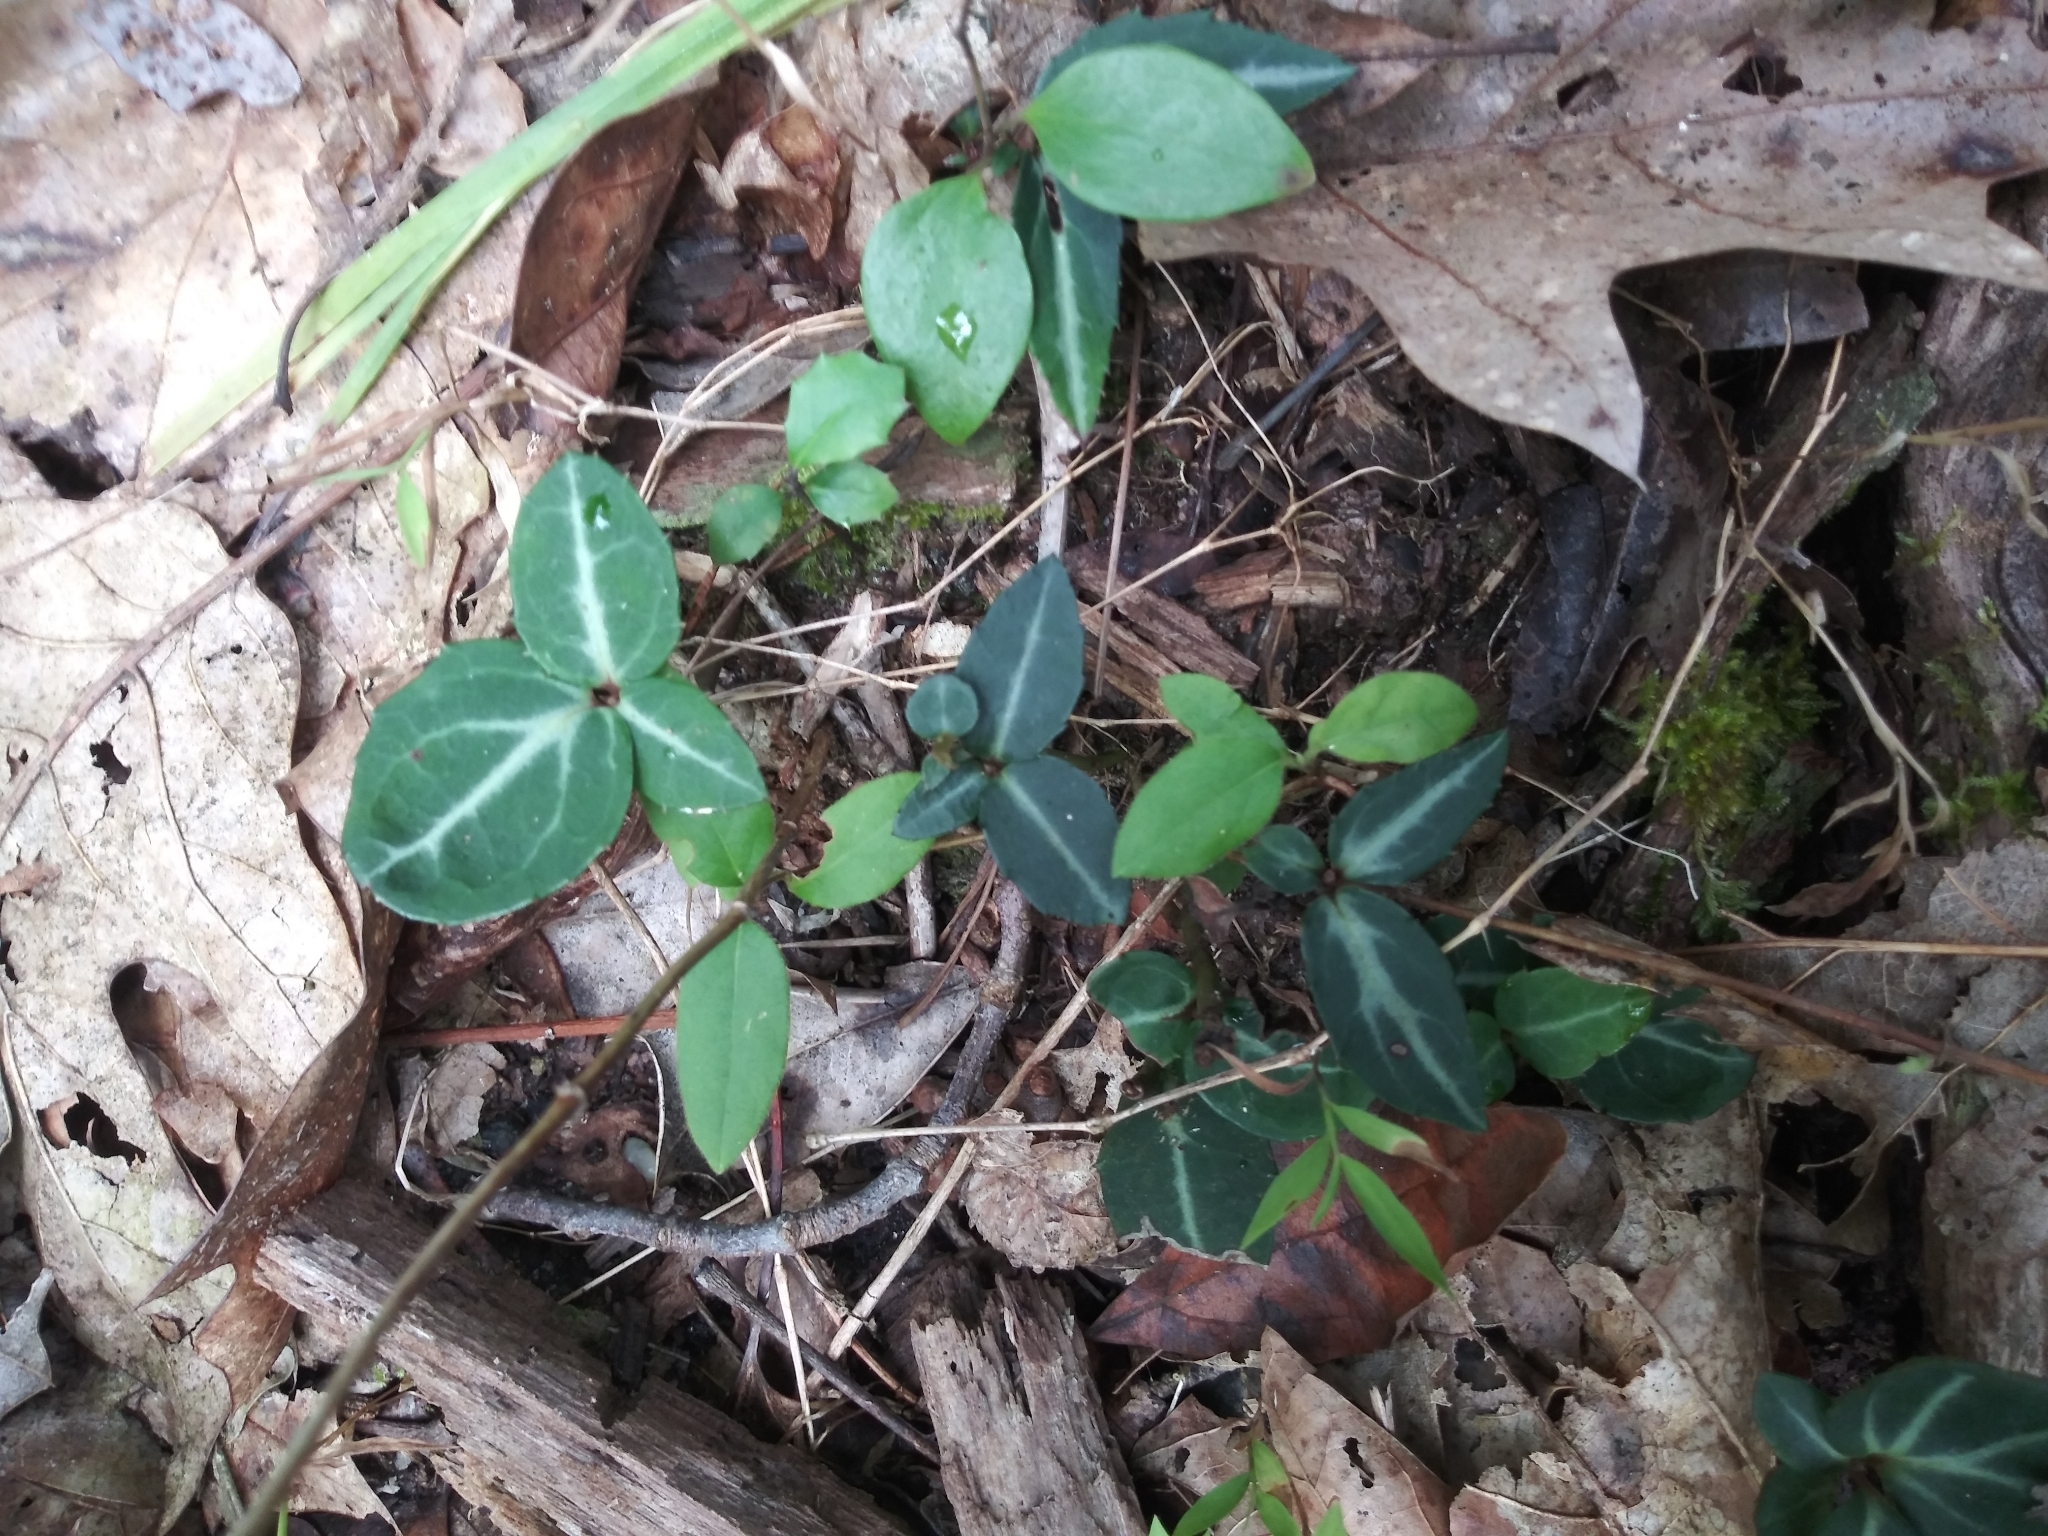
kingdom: Plantae
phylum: Tracheophyta
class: Magnoliopsida
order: Ericales
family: Ericaceae
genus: Chimaphila
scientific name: Chimaphila maculata
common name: Spotted pipsissewa
